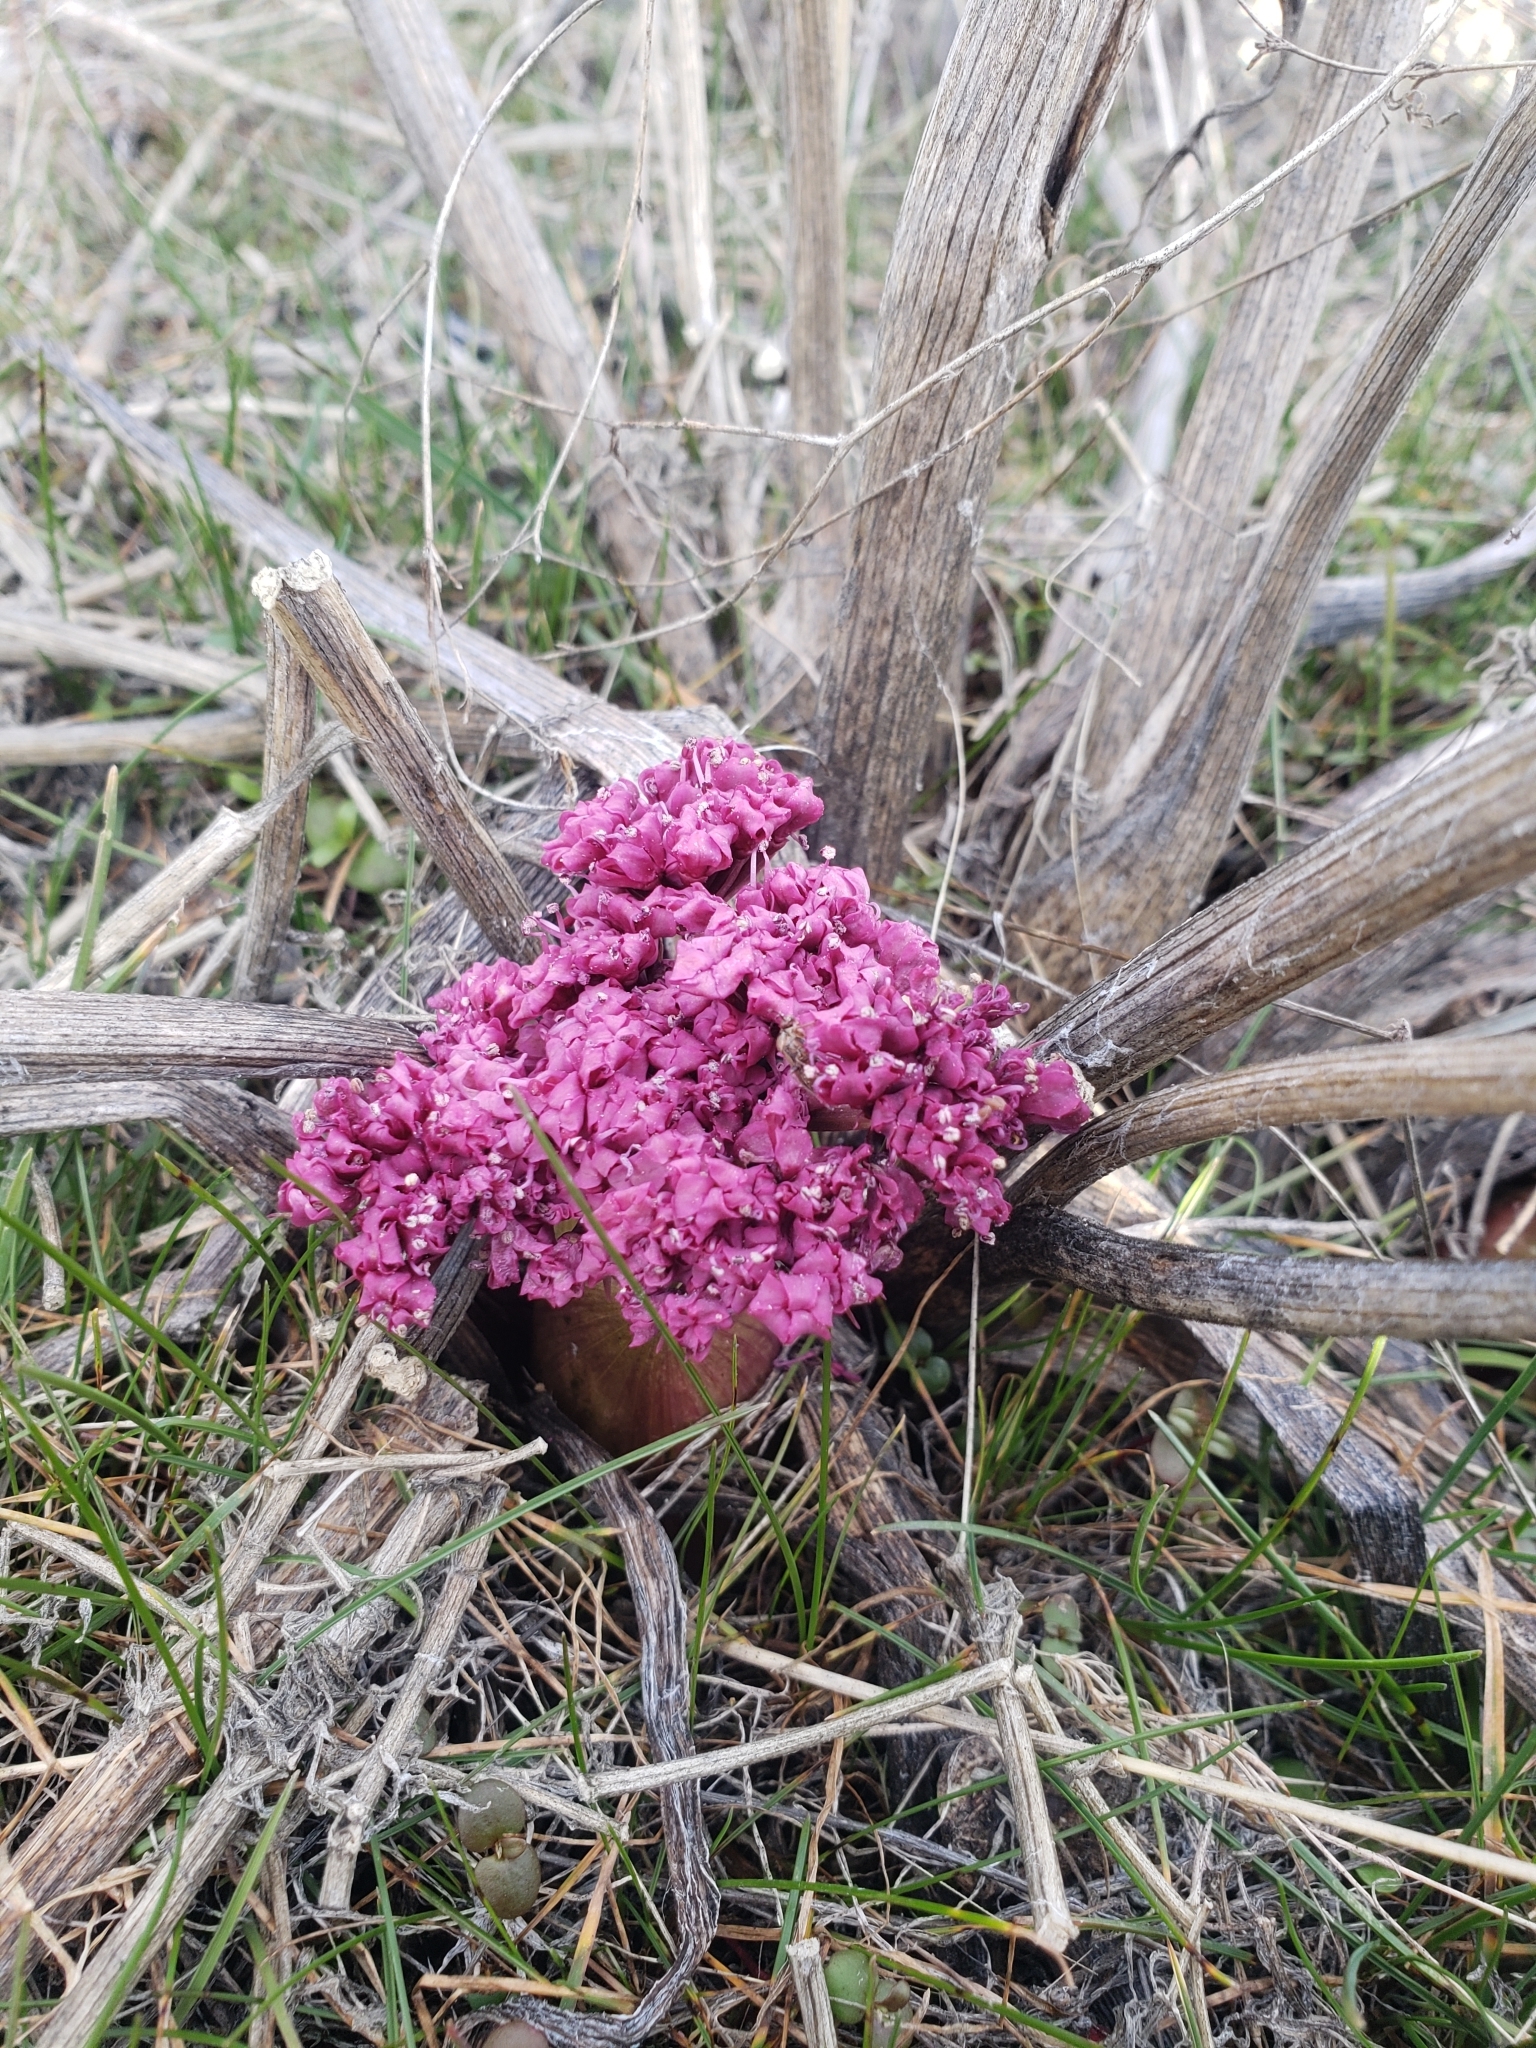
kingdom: Plantae
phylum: Tracheophyta
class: Magnoliopsida
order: Apiales
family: Apiaceae
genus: Lomatium
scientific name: Lomatium columbianum
